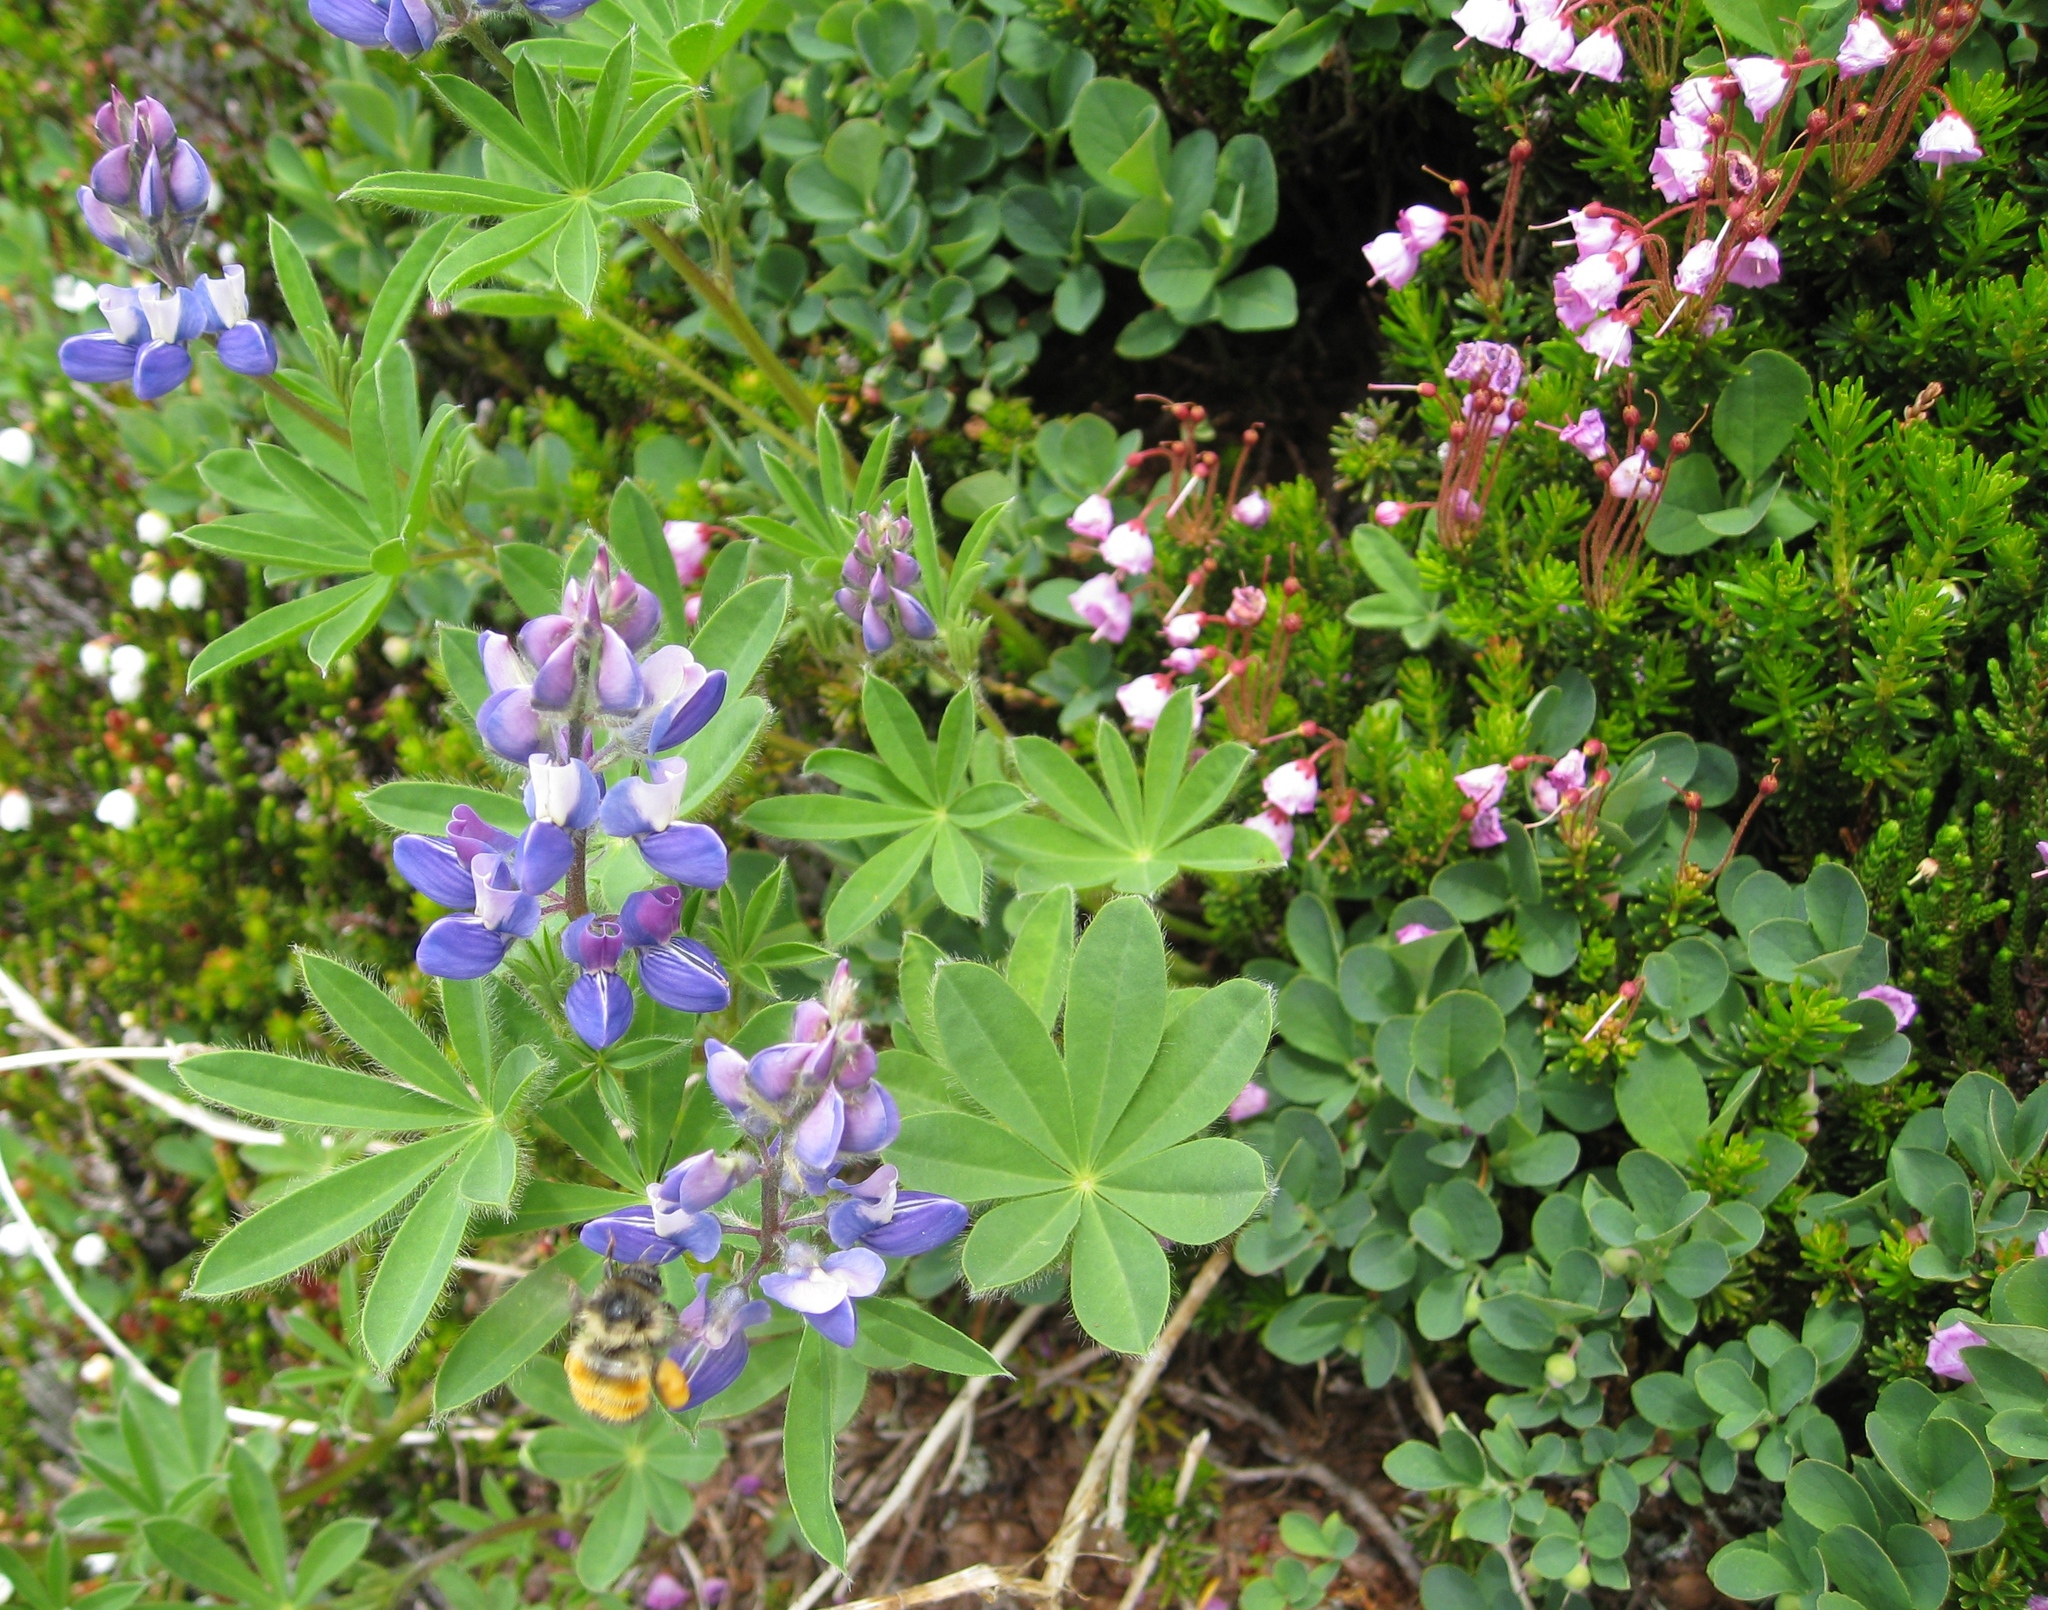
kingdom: Animalia
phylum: Arthropoda
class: Insecta
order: Hymenoptera
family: Apidae
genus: Bombus
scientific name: Bombus melanopygus
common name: Black tail bumble bee
